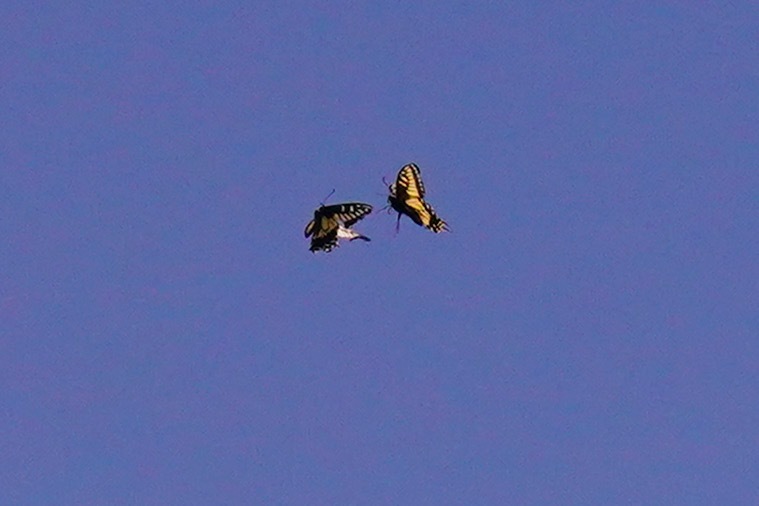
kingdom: Animalia
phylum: Arthropoda
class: Insecta
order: Lepidoptera
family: Papilionidae
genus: Papilio
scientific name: Papilio zelicaon
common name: Anise swallowtail
